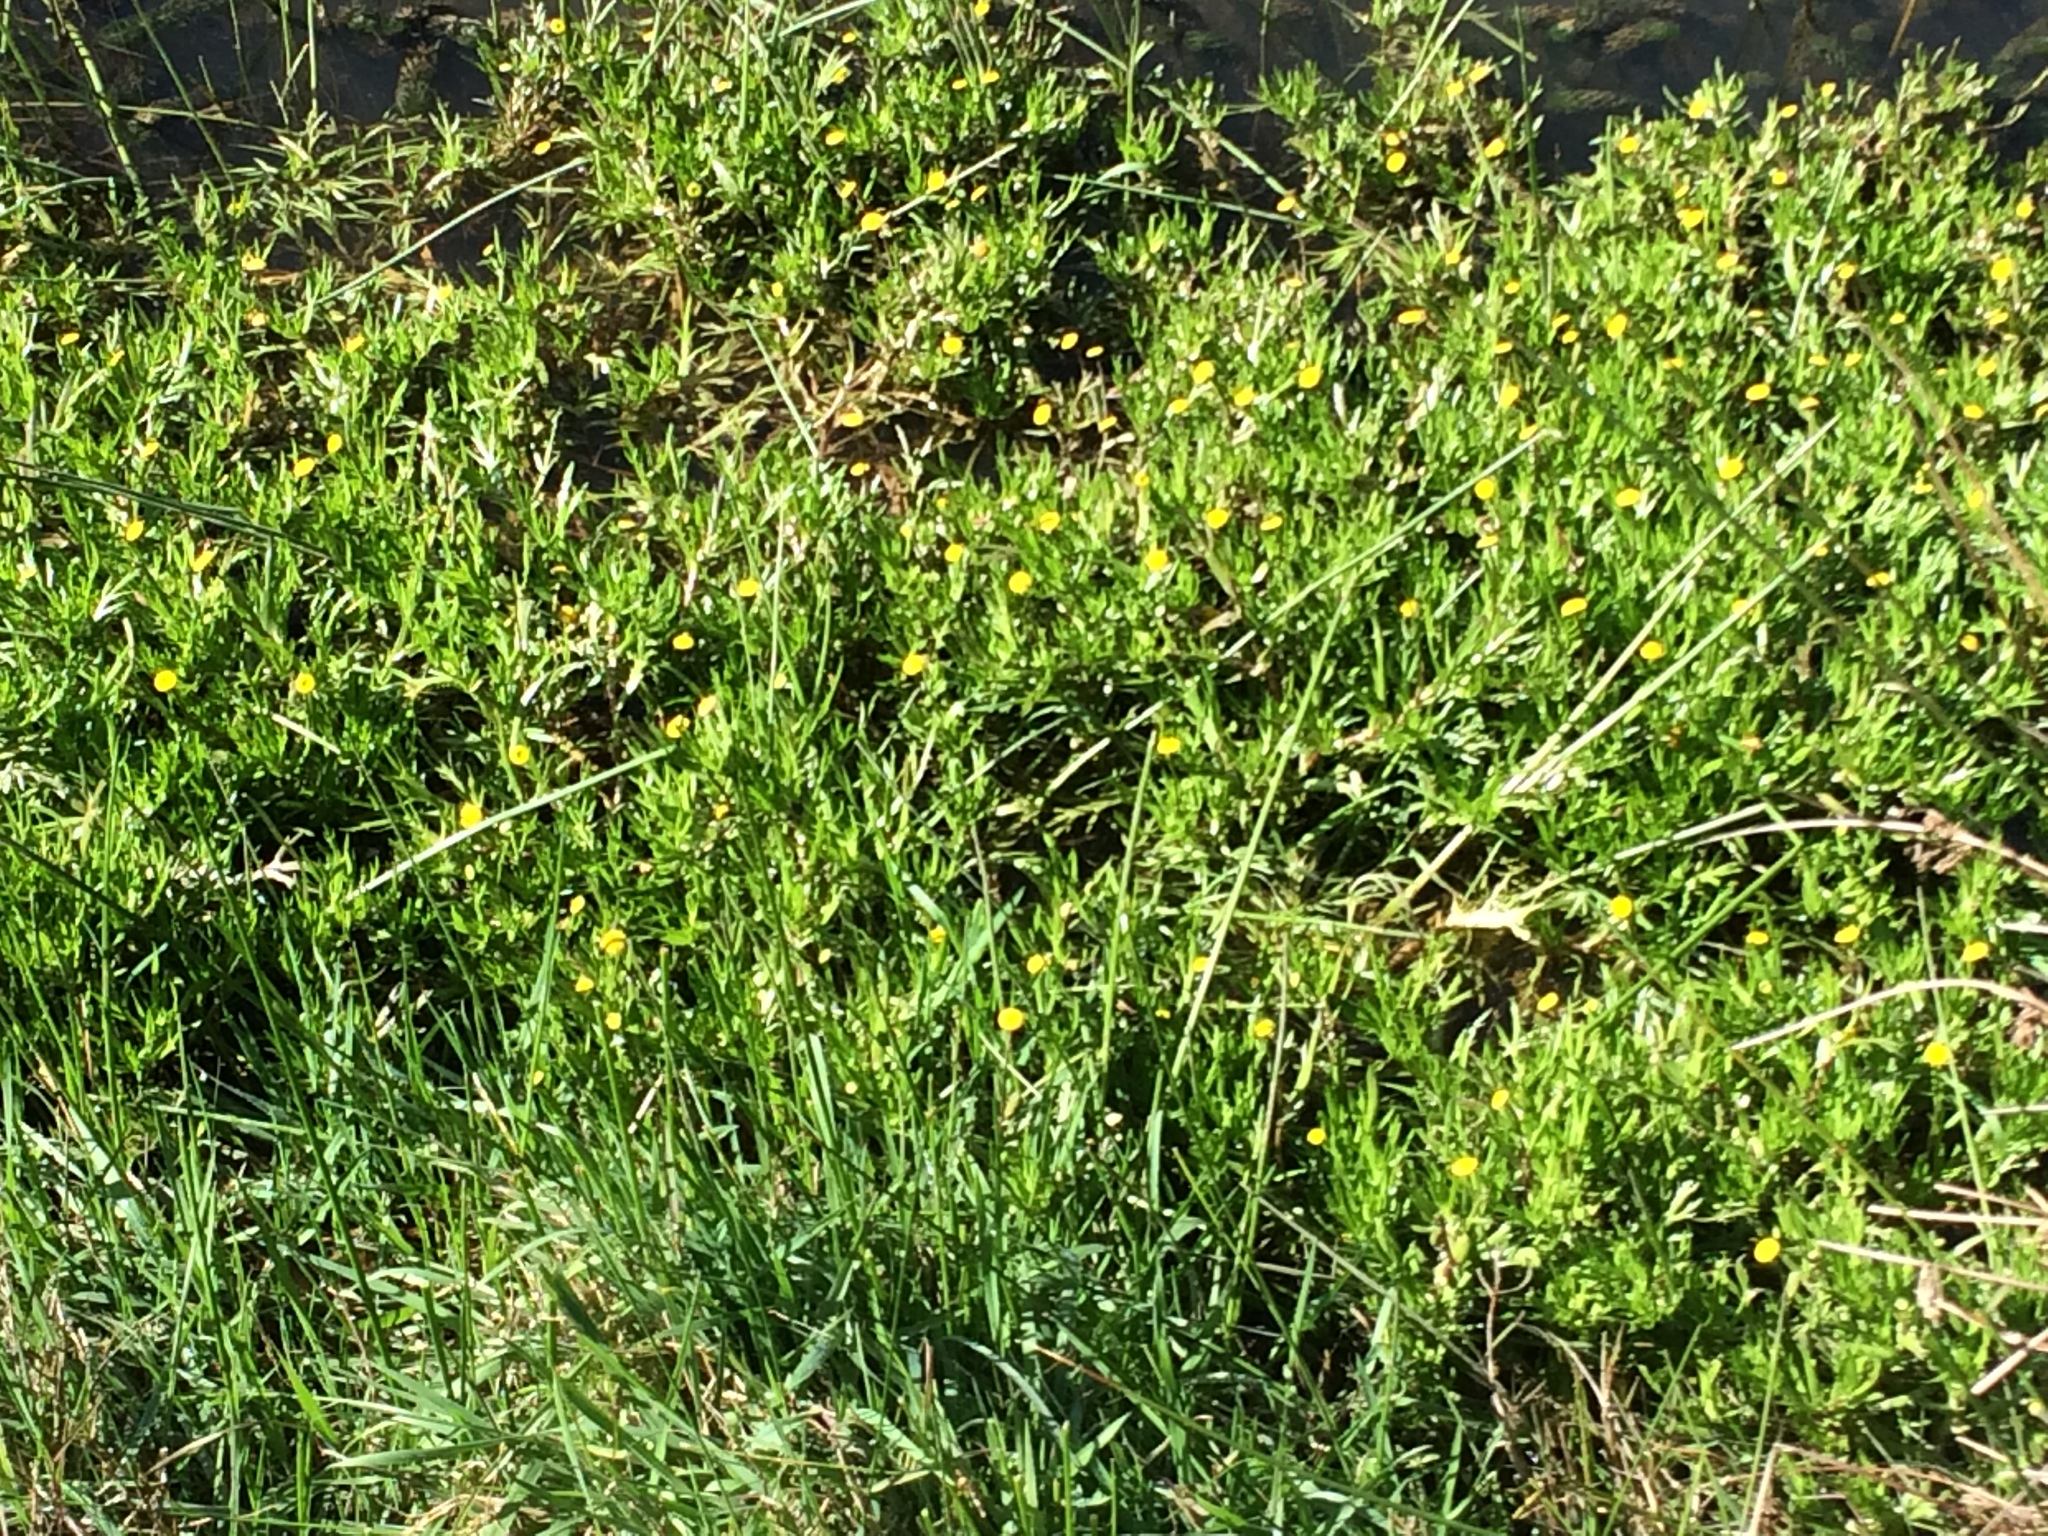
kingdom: Plantae
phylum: Tracheophyta
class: Magnoliopsida
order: Asterales
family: Asteraceae
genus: Cotula
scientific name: Cotula coronopifolia
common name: Buttonweed
